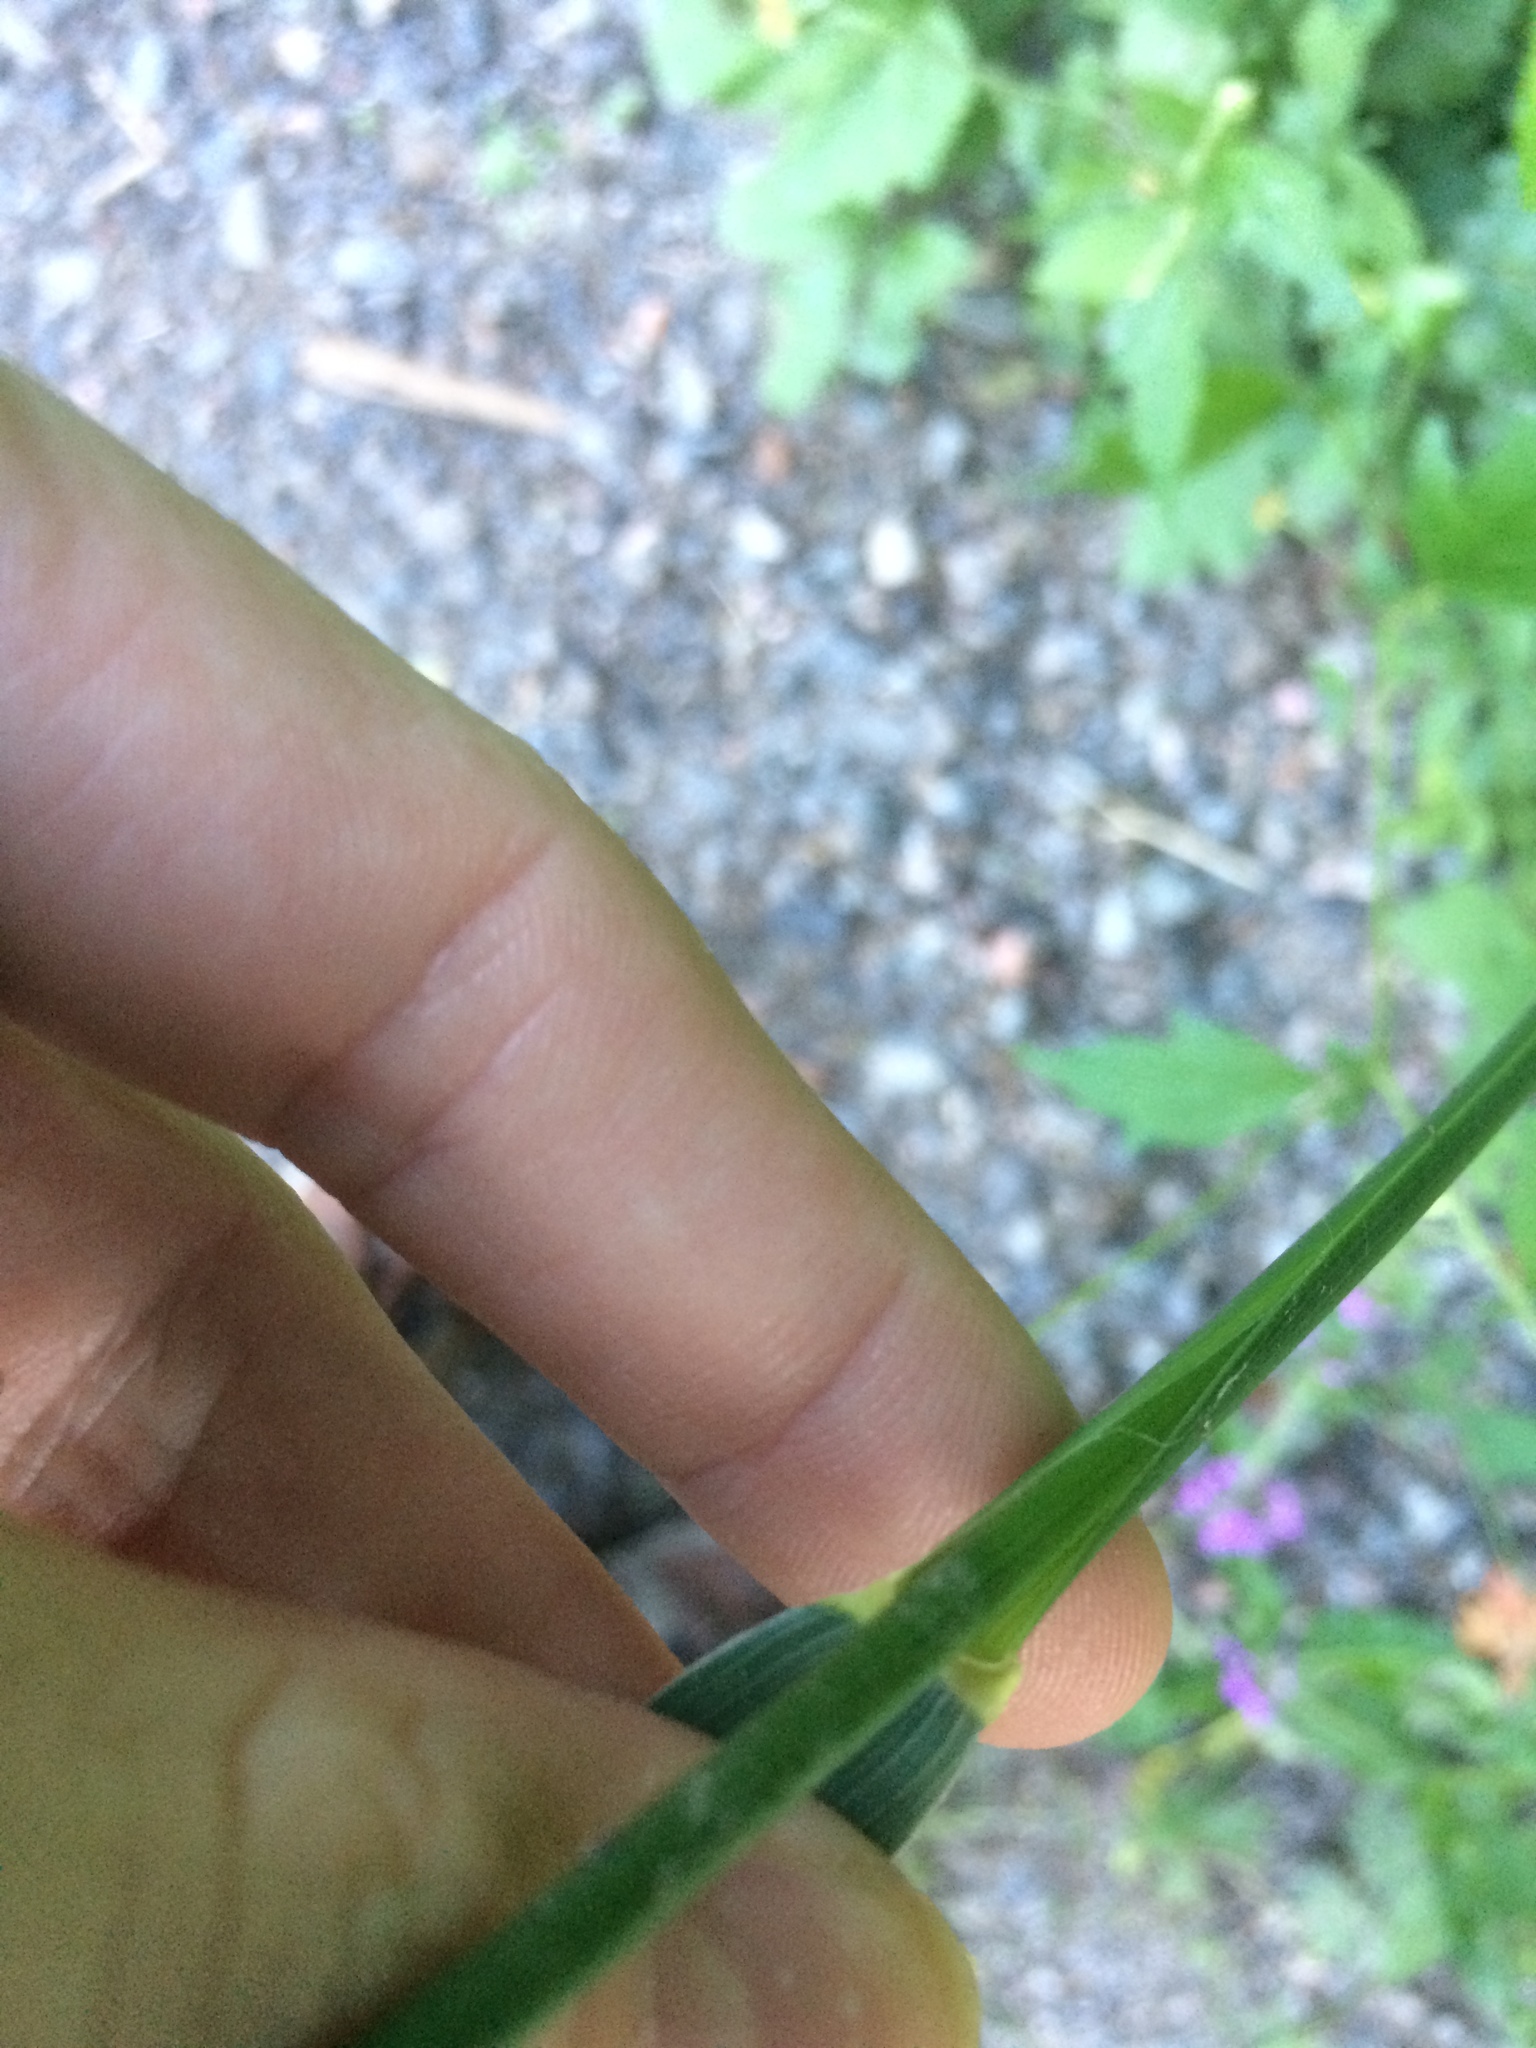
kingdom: Plantae
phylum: Tracheophyta
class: Liliopsida
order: Poales
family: Poaceae
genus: Elymus
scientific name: Elymus repens
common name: Quackgrass
